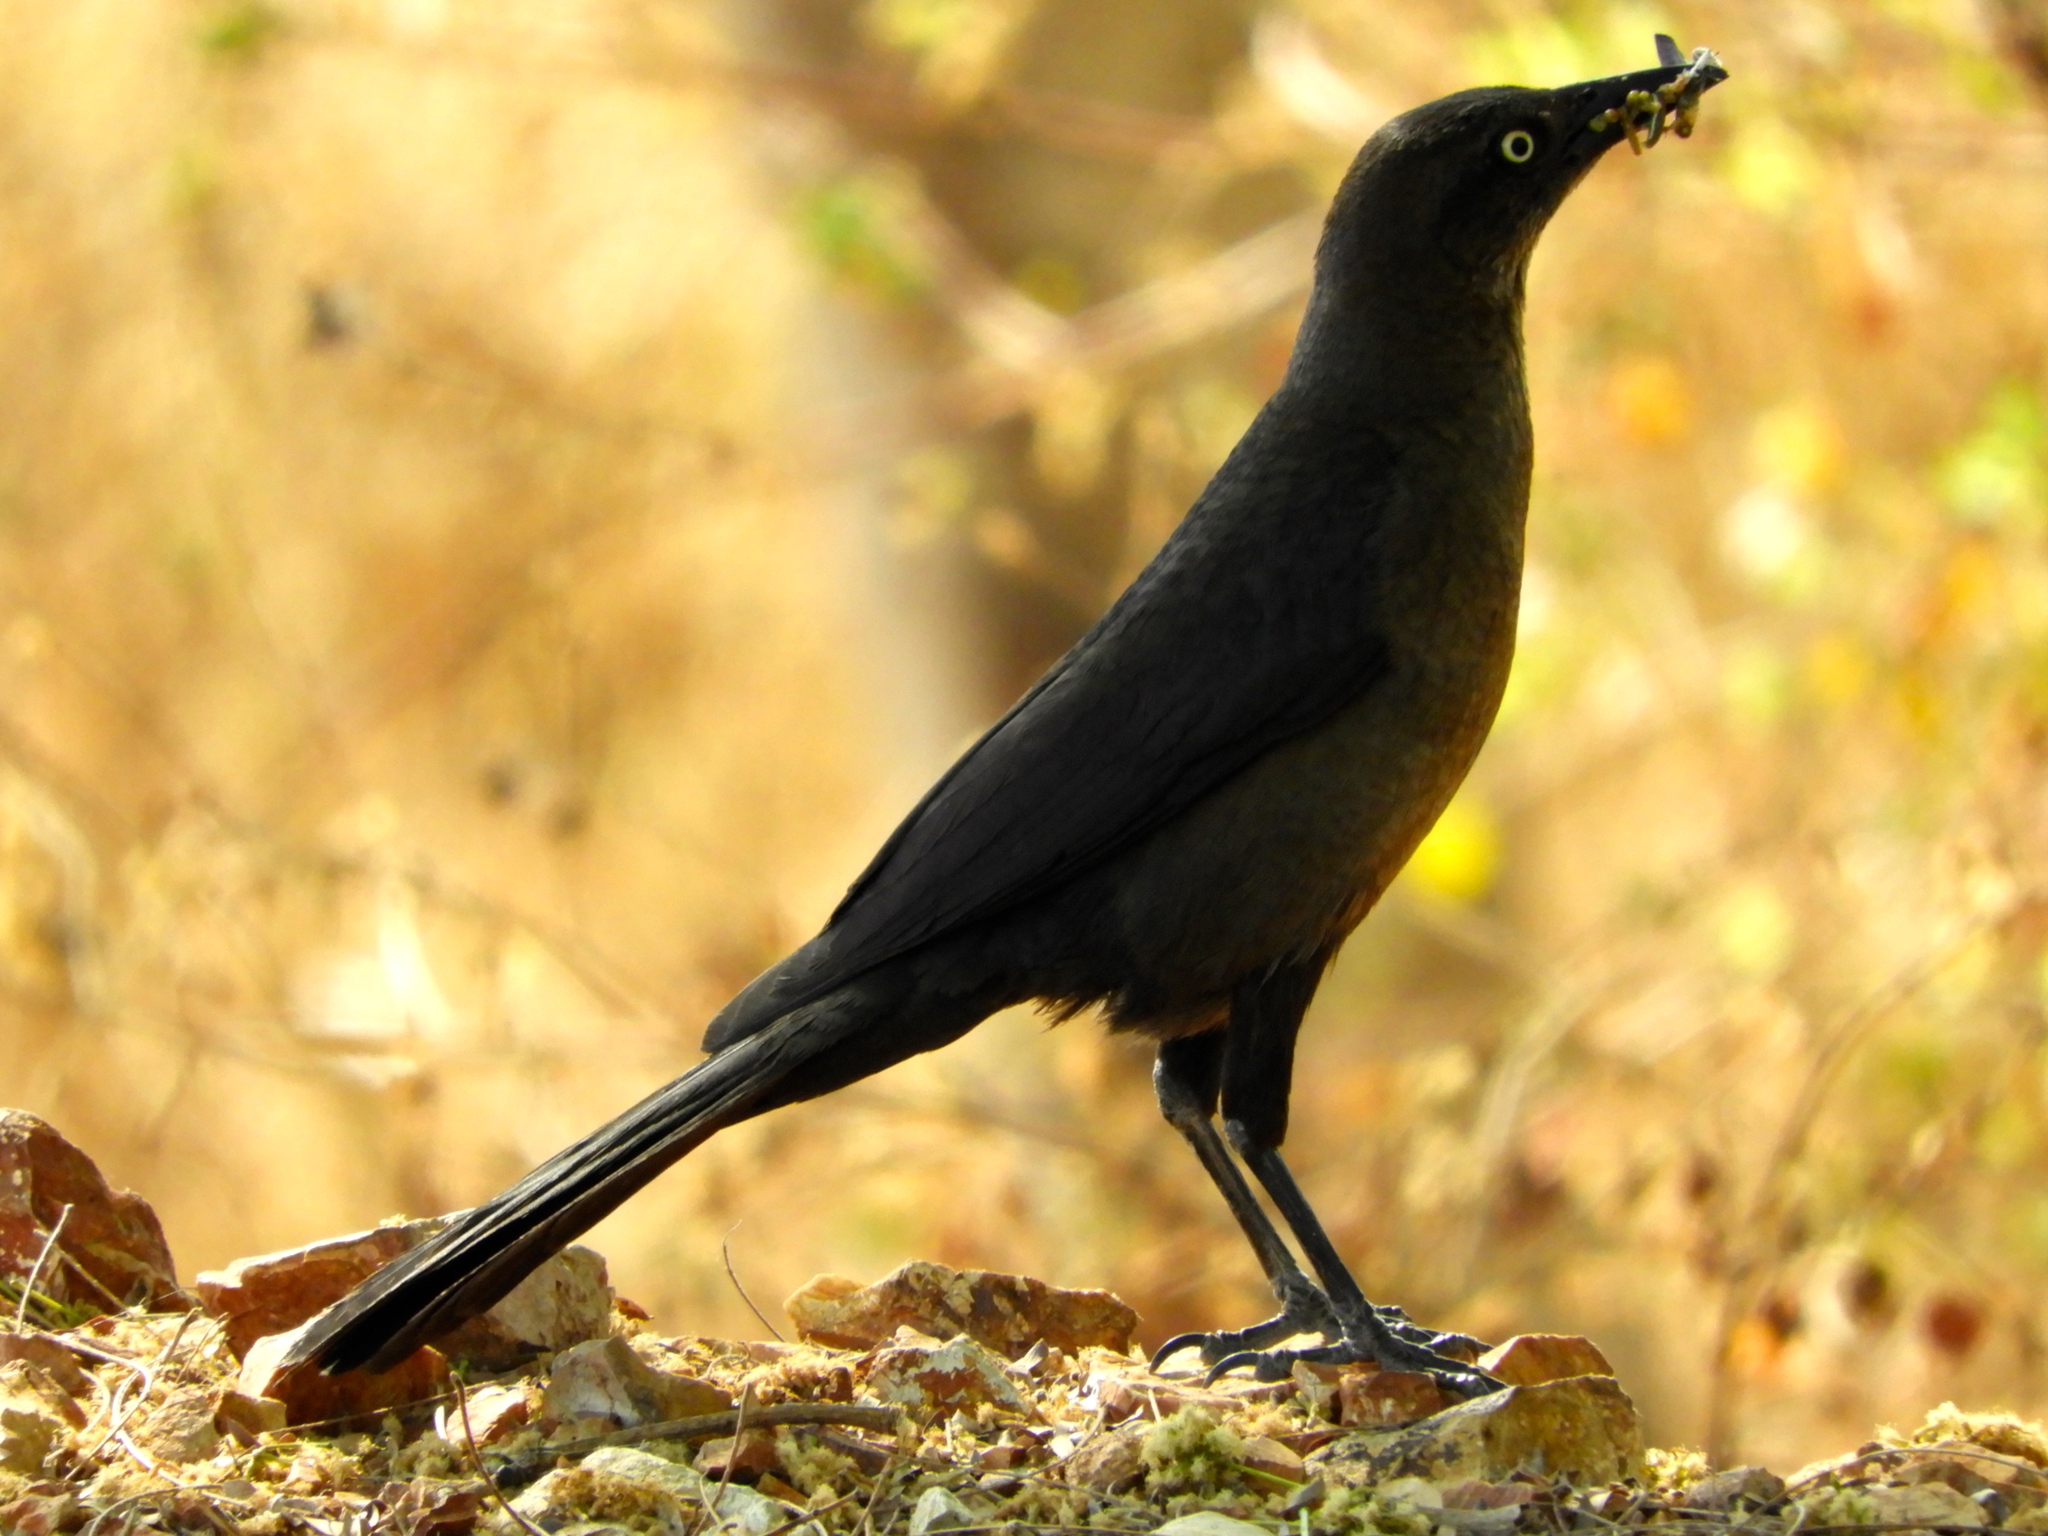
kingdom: Animalia
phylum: Chordata
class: Aves
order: Passeriformes
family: Icteridae
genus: Quiscalus
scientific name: Quiscalus mexicanus
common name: Great-tailed grackle
